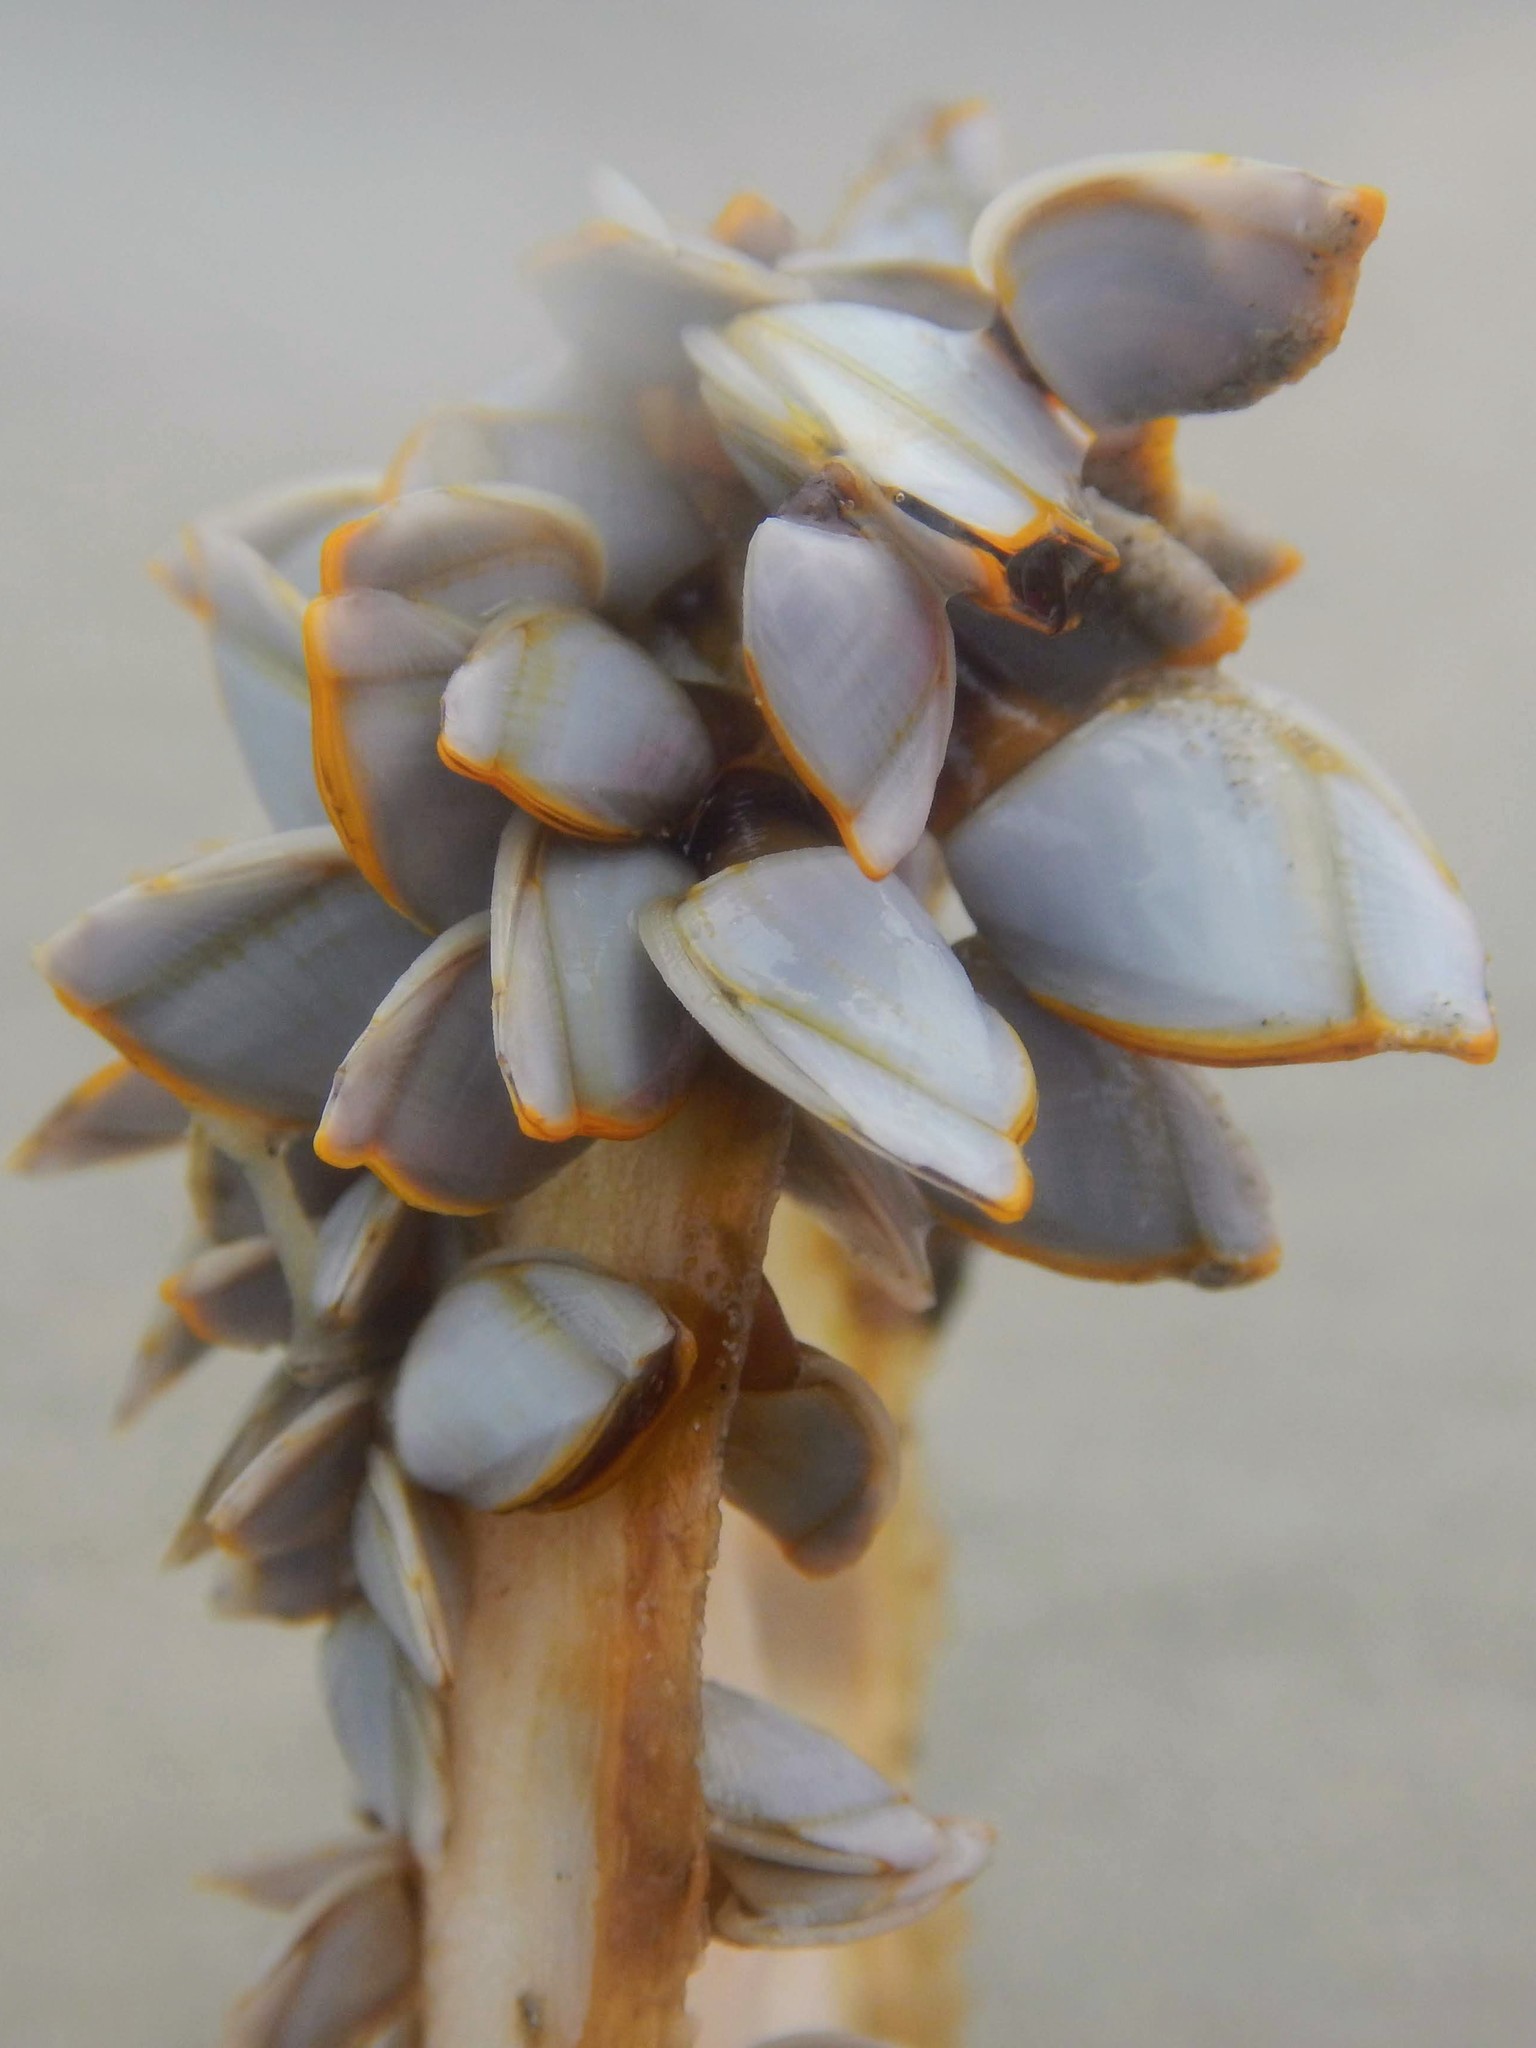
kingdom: Animalia
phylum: Arthropoda
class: Maxillopoda
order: Pedunculata
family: Lepadidae
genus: Lepas
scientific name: Lepas anserifera
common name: Goose barnacle
